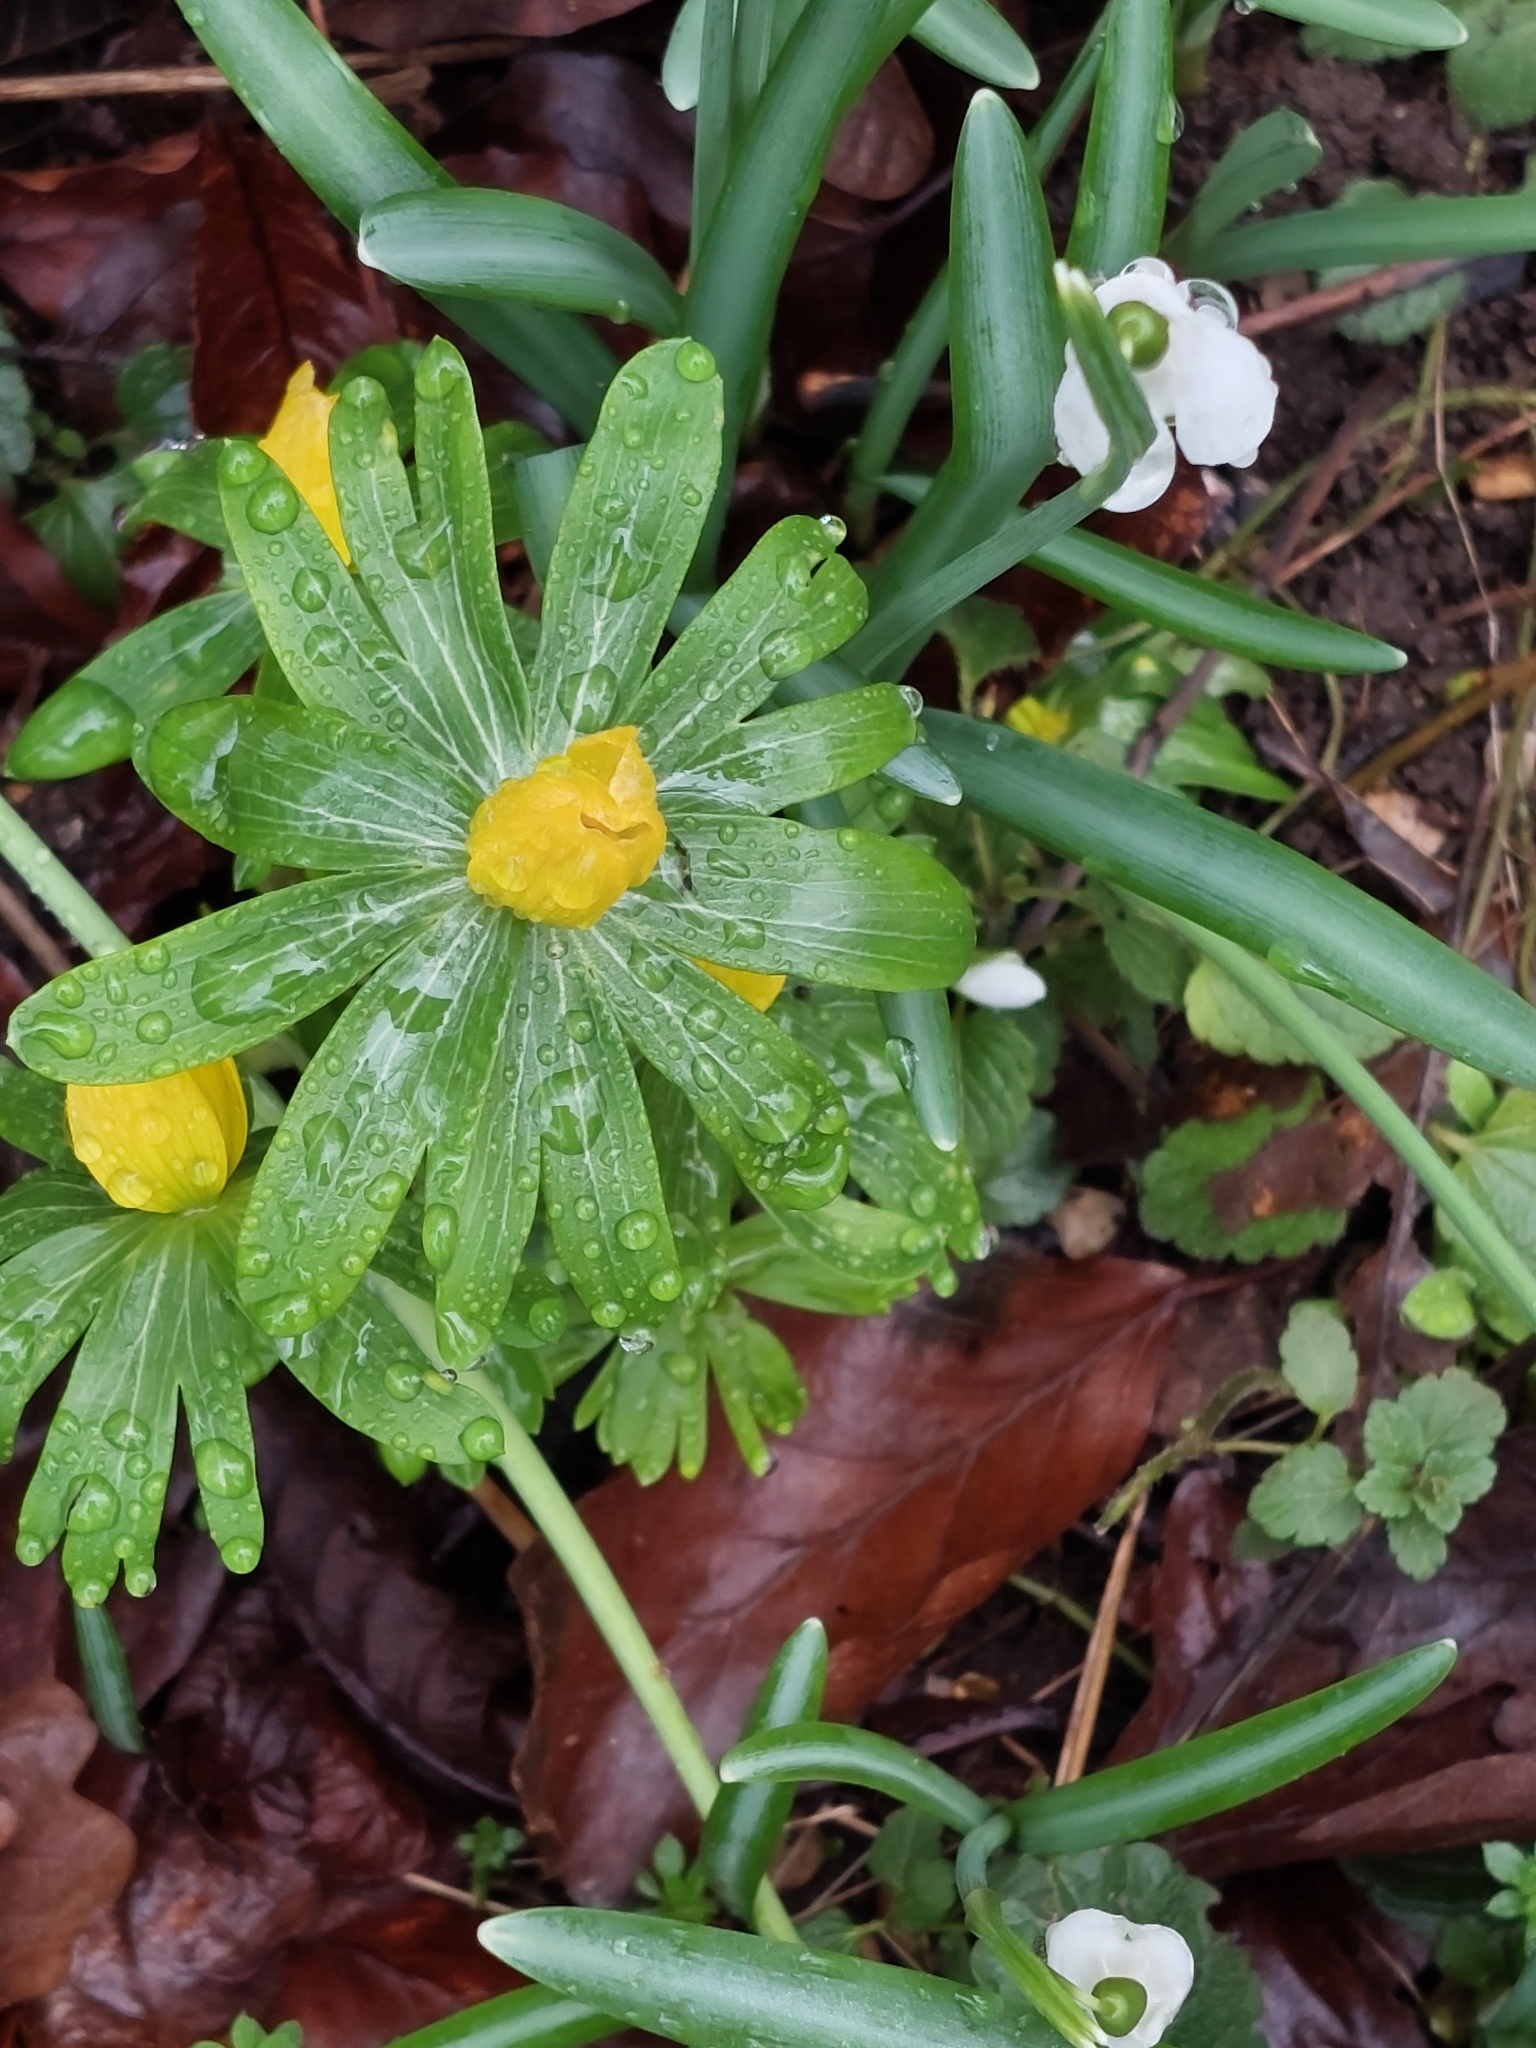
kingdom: Plantae
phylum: Tracheophyta
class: Magnoliopsida
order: Ranunculales
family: Ranunculaceae
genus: Eranthis
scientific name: Eranthis hyemalis
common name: Winter aconite
